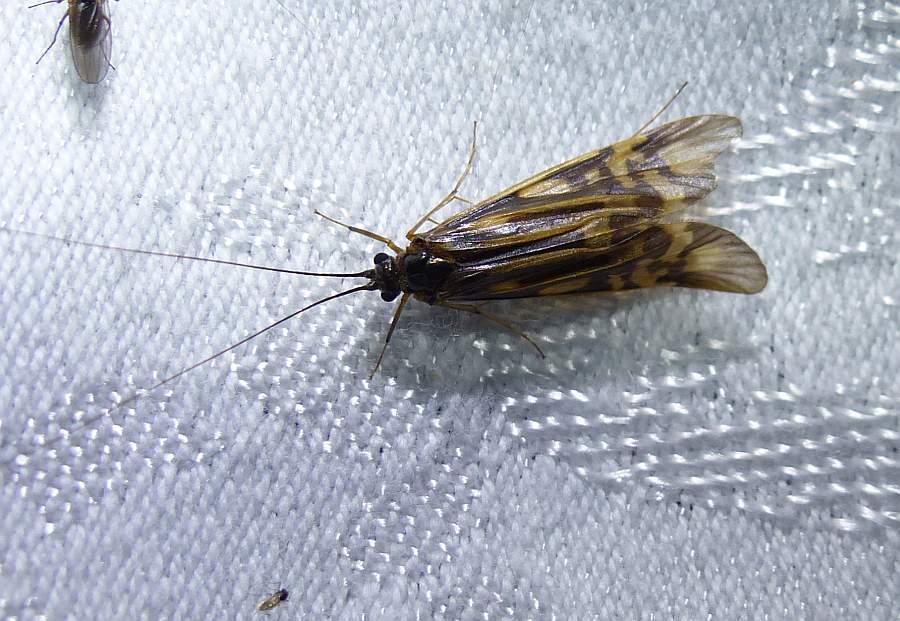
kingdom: Animalia
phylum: Arthropoda
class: Insecta
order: Trichoptera
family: Hydropsychidae
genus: Macrostemum
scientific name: Macrostemum zebratum
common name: Zebra caddisfly
